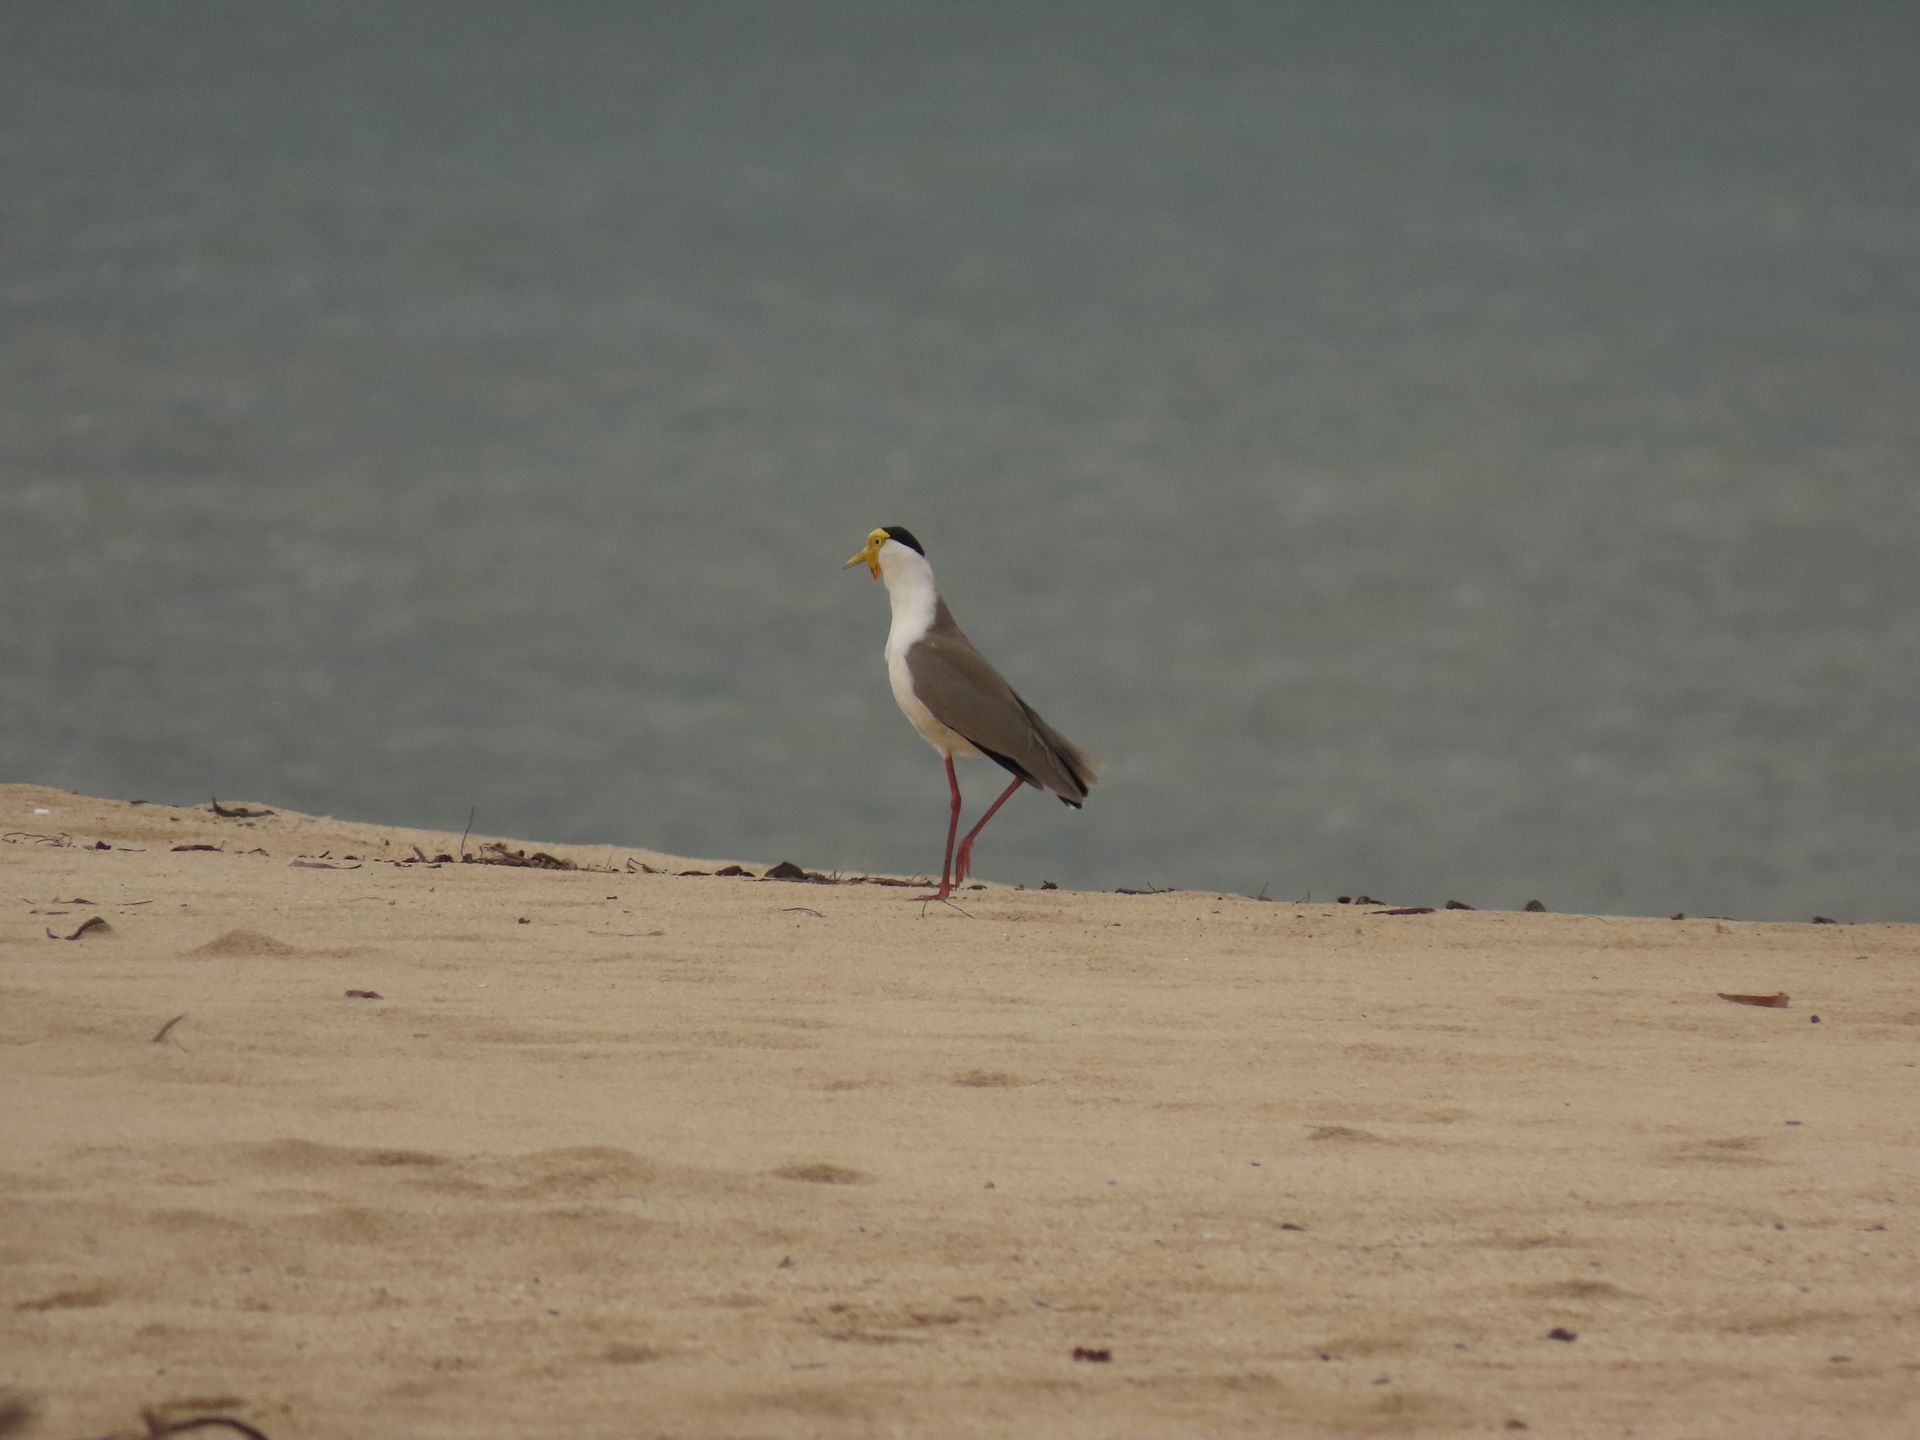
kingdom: Animalia
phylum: Chordata
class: Aves
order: Charadriiformes
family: Charadriidae
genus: Vanellus
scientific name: Vanellus miles
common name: Masked lapwing
